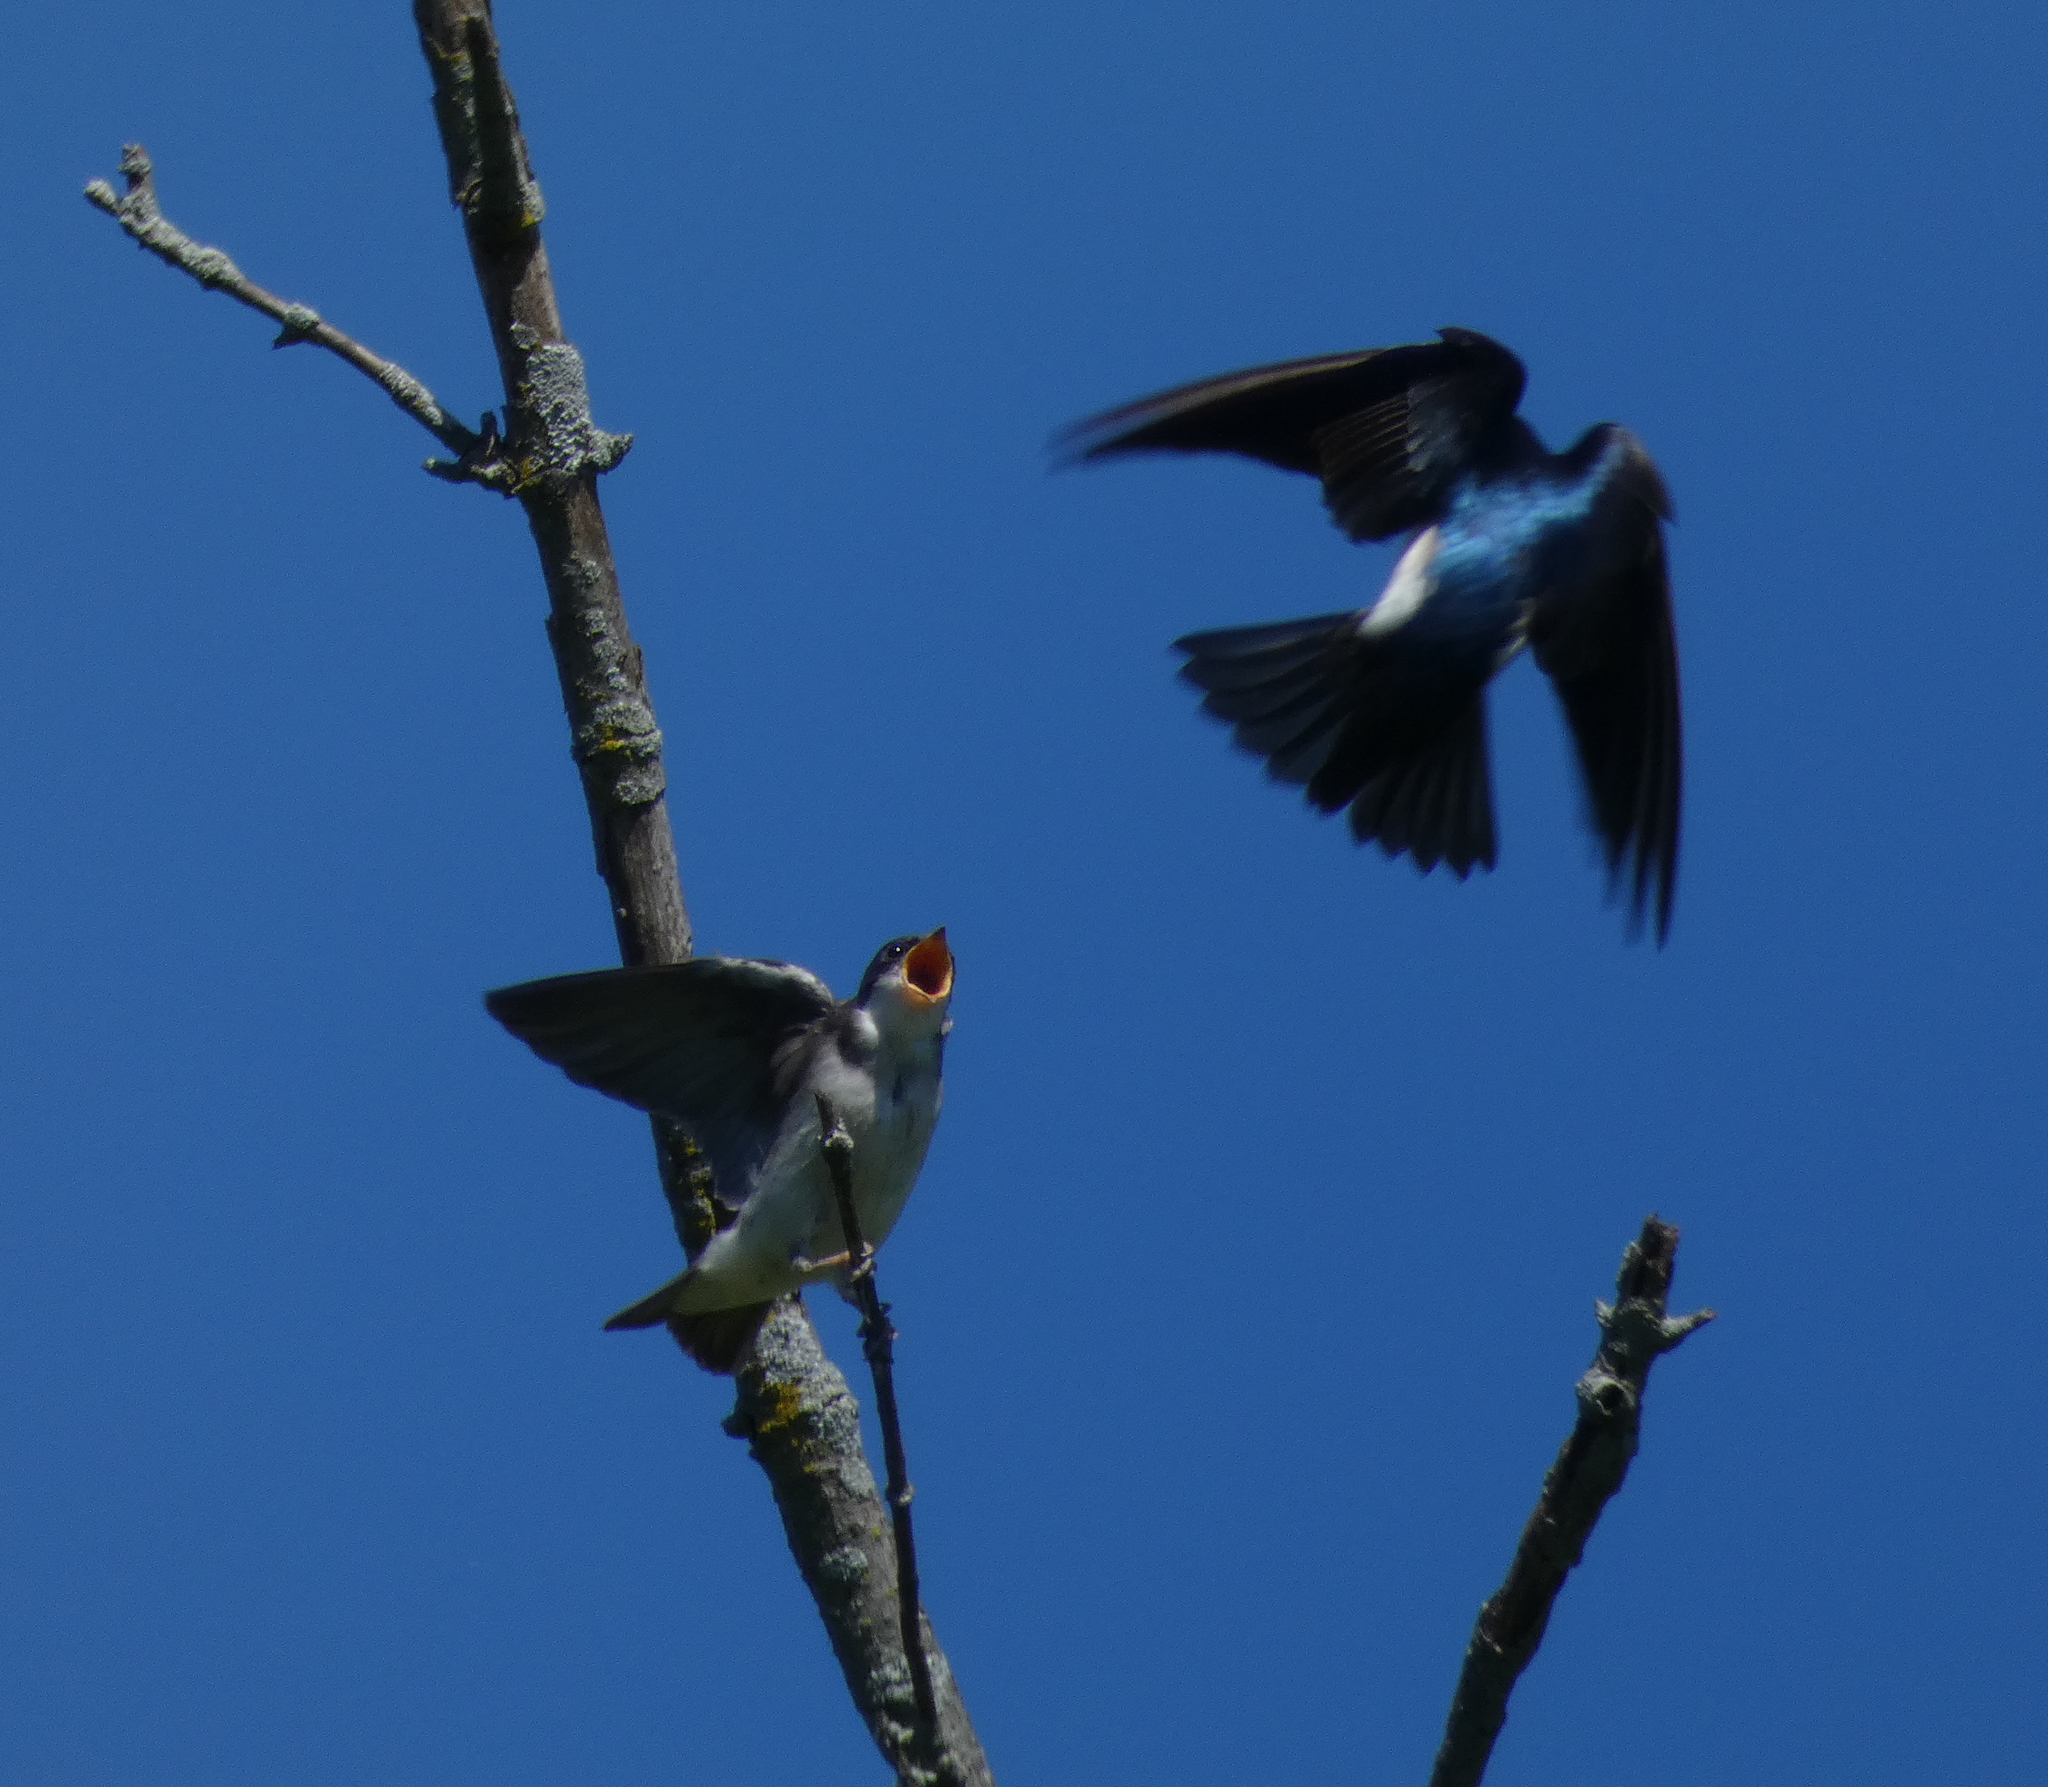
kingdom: Animalia
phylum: Chordata
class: Aves
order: Passeriformes
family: Hirundinidae
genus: Tachycineta
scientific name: Tachycineta bicolor
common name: Tree swallow
